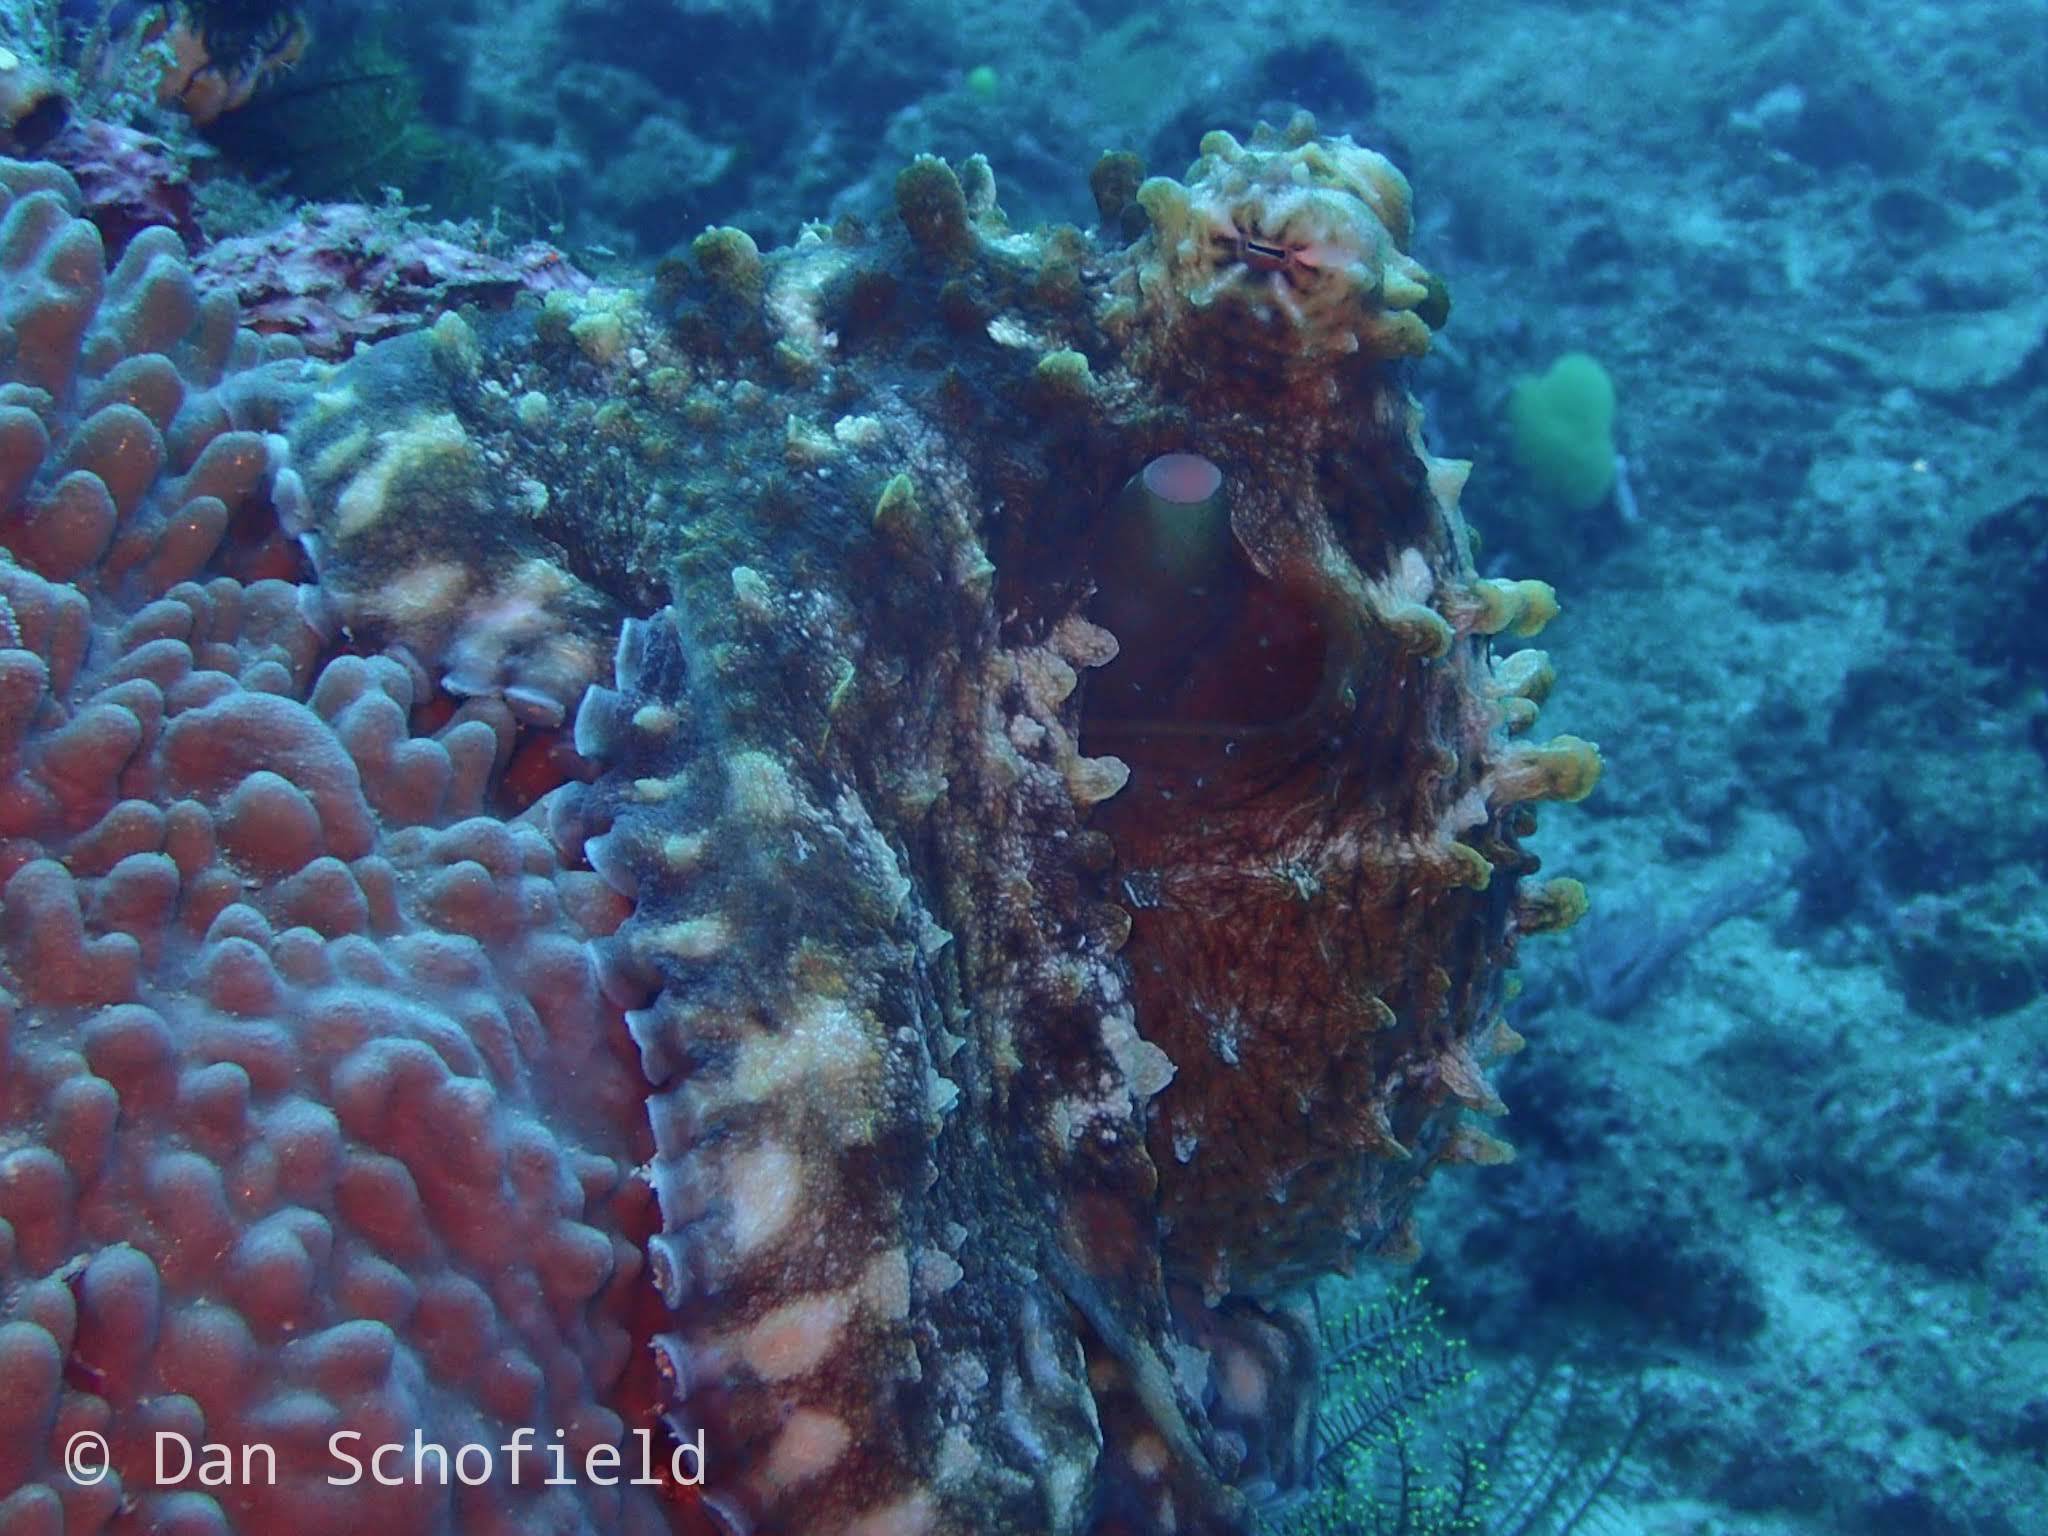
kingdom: Animalia
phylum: Mollusca
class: Cephalopoda
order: Octopoda
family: Octopodidae
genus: Octopus
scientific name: Octopus cyanea
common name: Cyane's octopus
